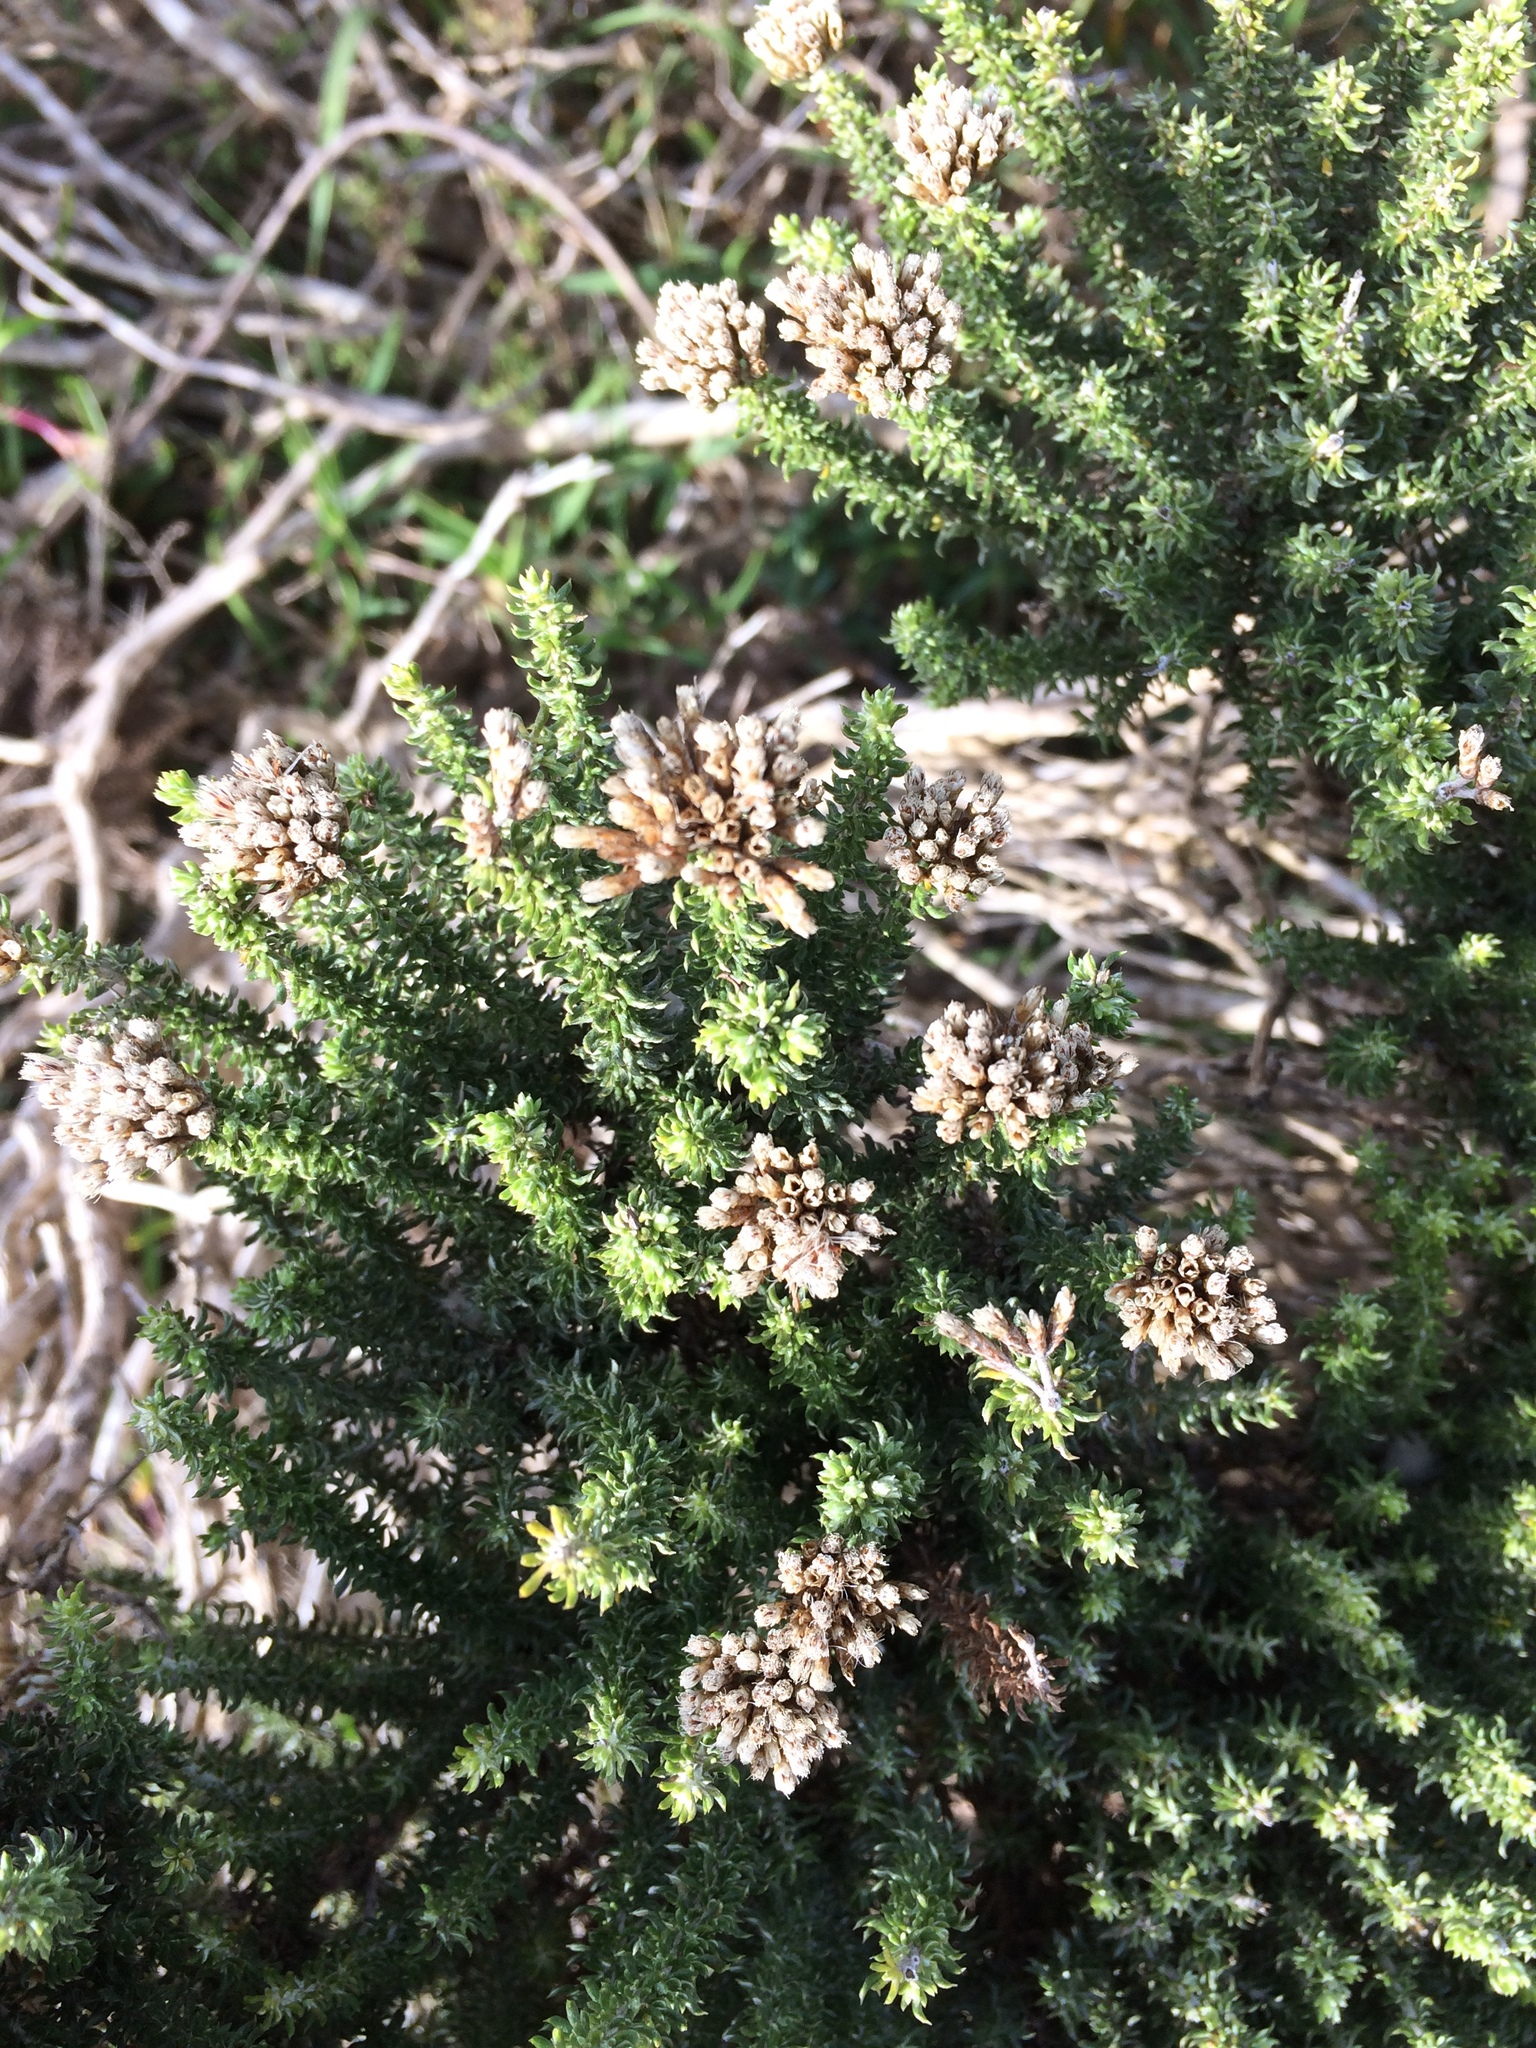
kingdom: Plantae
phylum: Tracheophyta
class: Magnoliopsida
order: Asterales
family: Asteraceae
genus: Metalasia
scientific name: Metalasia muricata
